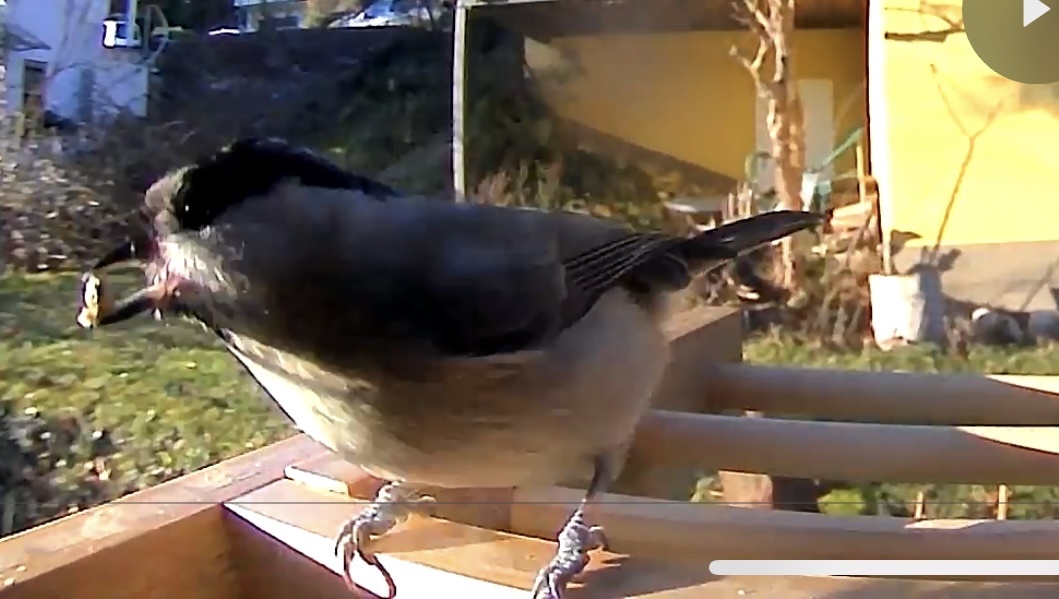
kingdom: Animalia
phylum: Chordata
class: Aves
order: Passeriformes
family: Paridae
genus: Poecile
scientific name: Poecile palustris
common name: Marsh tit
